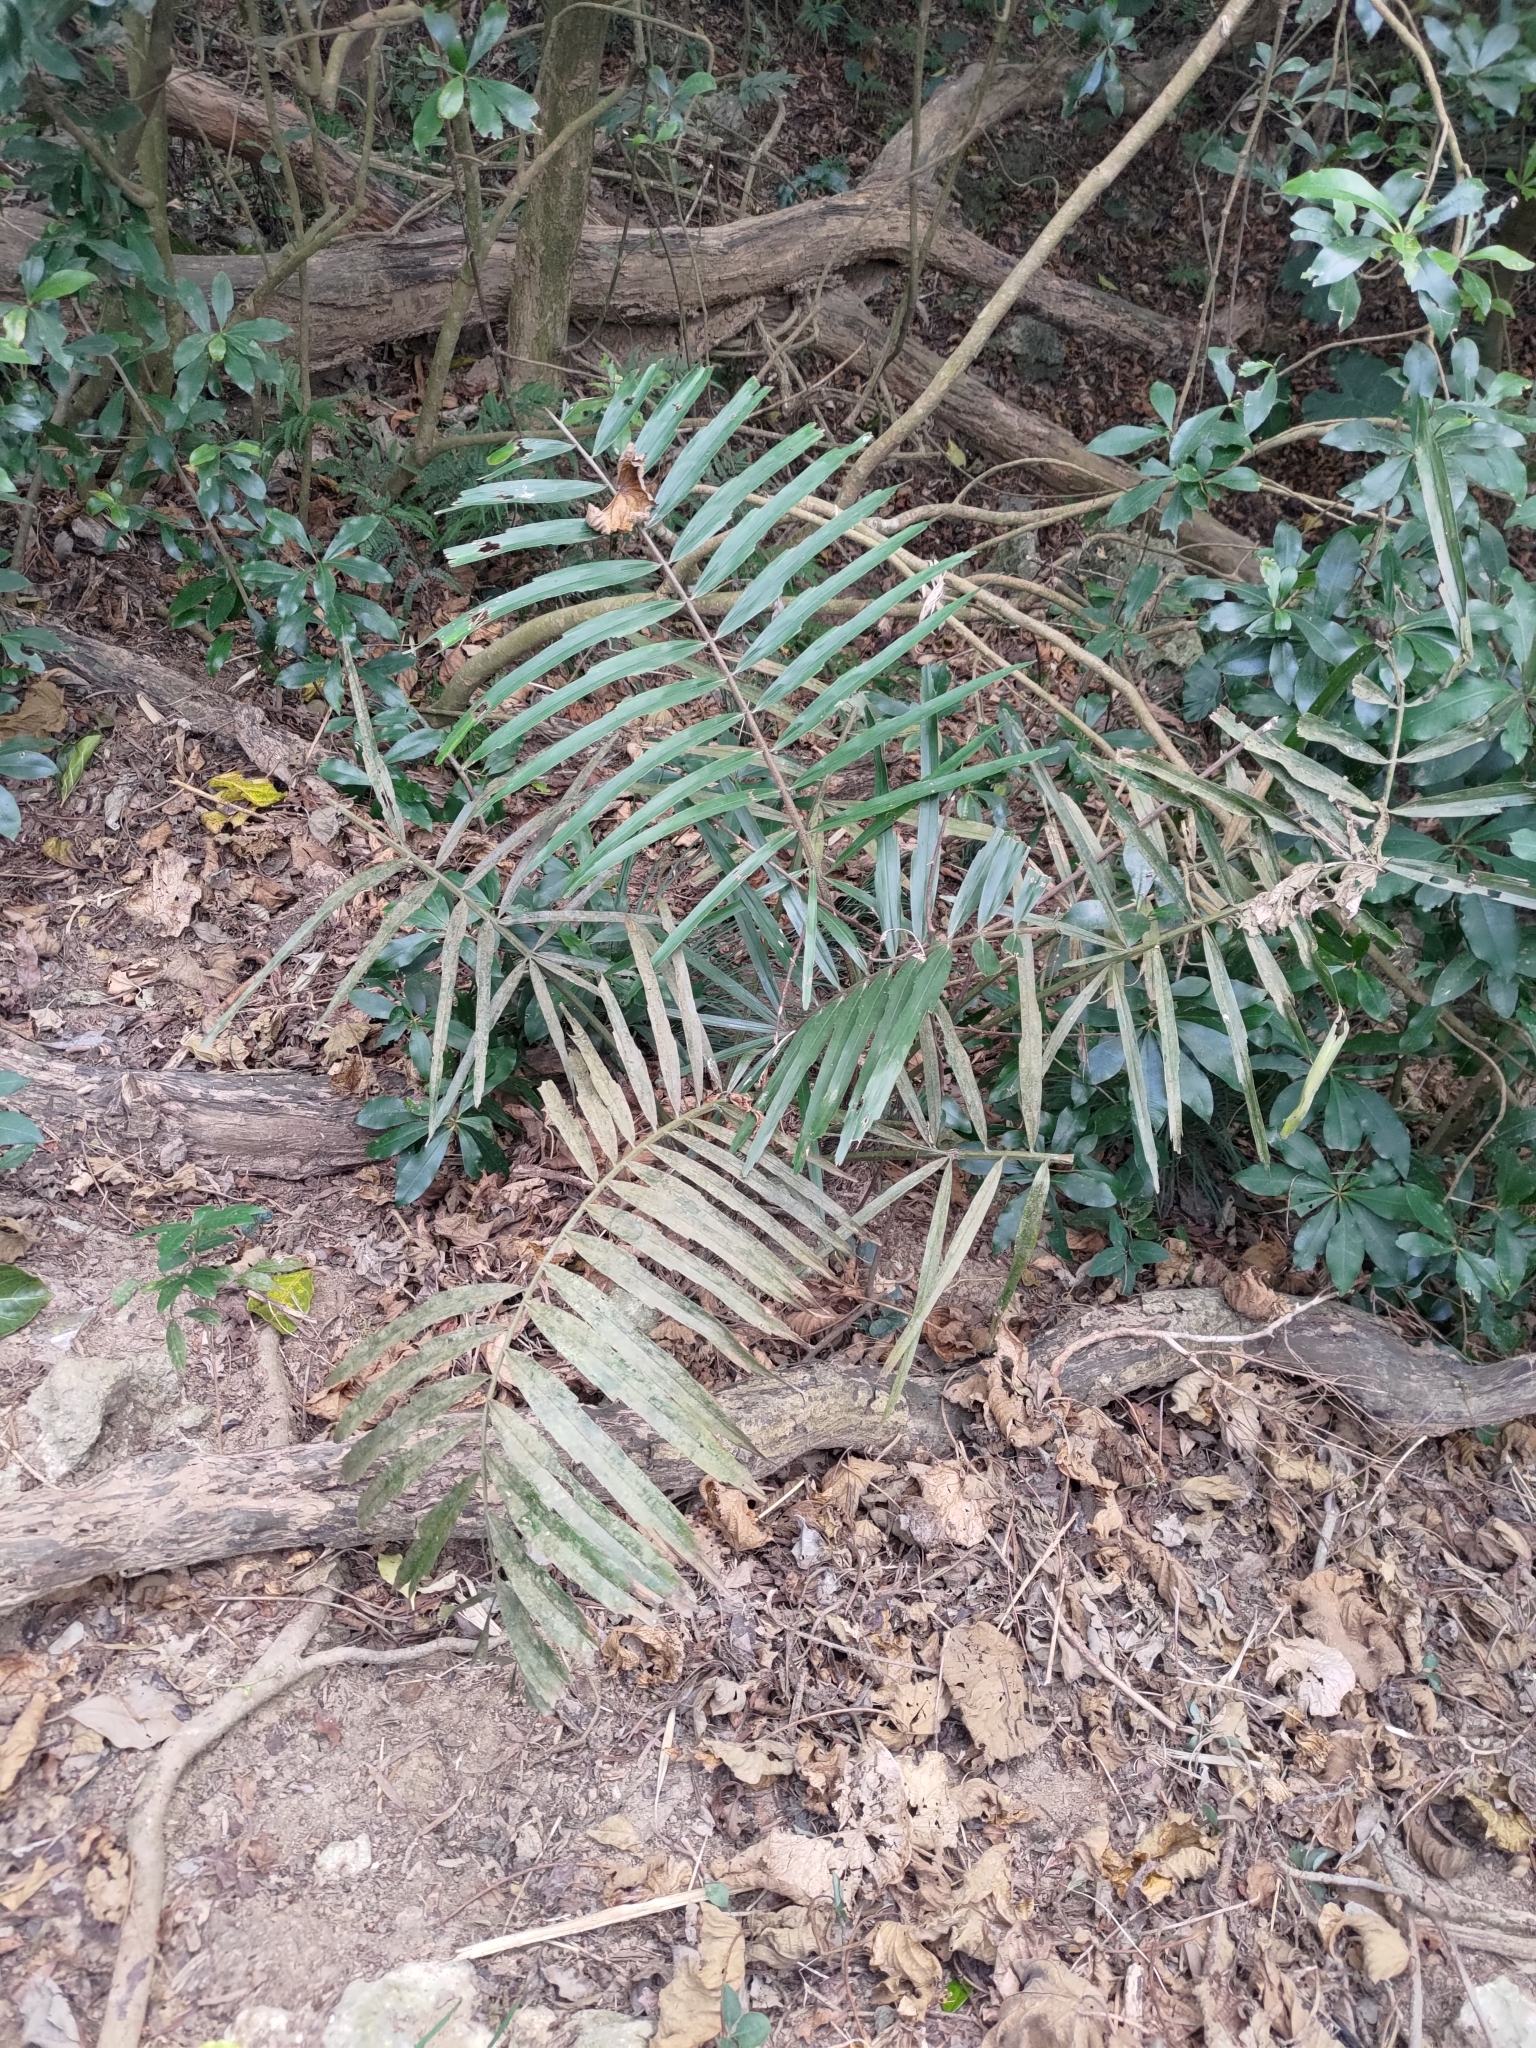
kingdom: Plantae
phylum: Tracheophyta
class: Liliopsida
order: Arecales
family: Arecaceae
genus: Arenga
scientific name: Arenga engleri
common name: Formosan sugar palm
